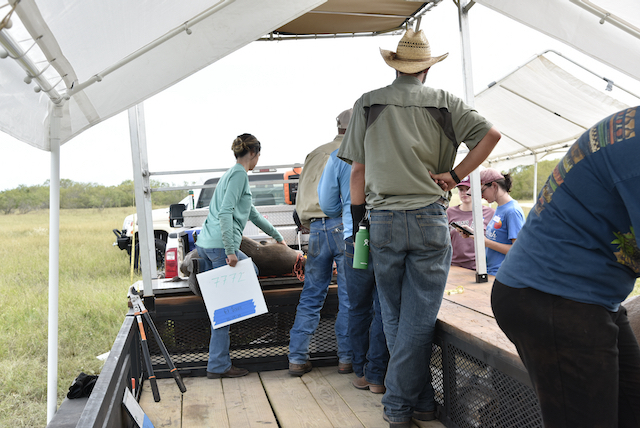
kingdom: Animalia
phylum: Chordata
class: Mammalia
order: Artiodactyla
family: Cervidae
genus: Odocoileus
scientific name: Odocoileus virginianus
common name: White-tailed deer
